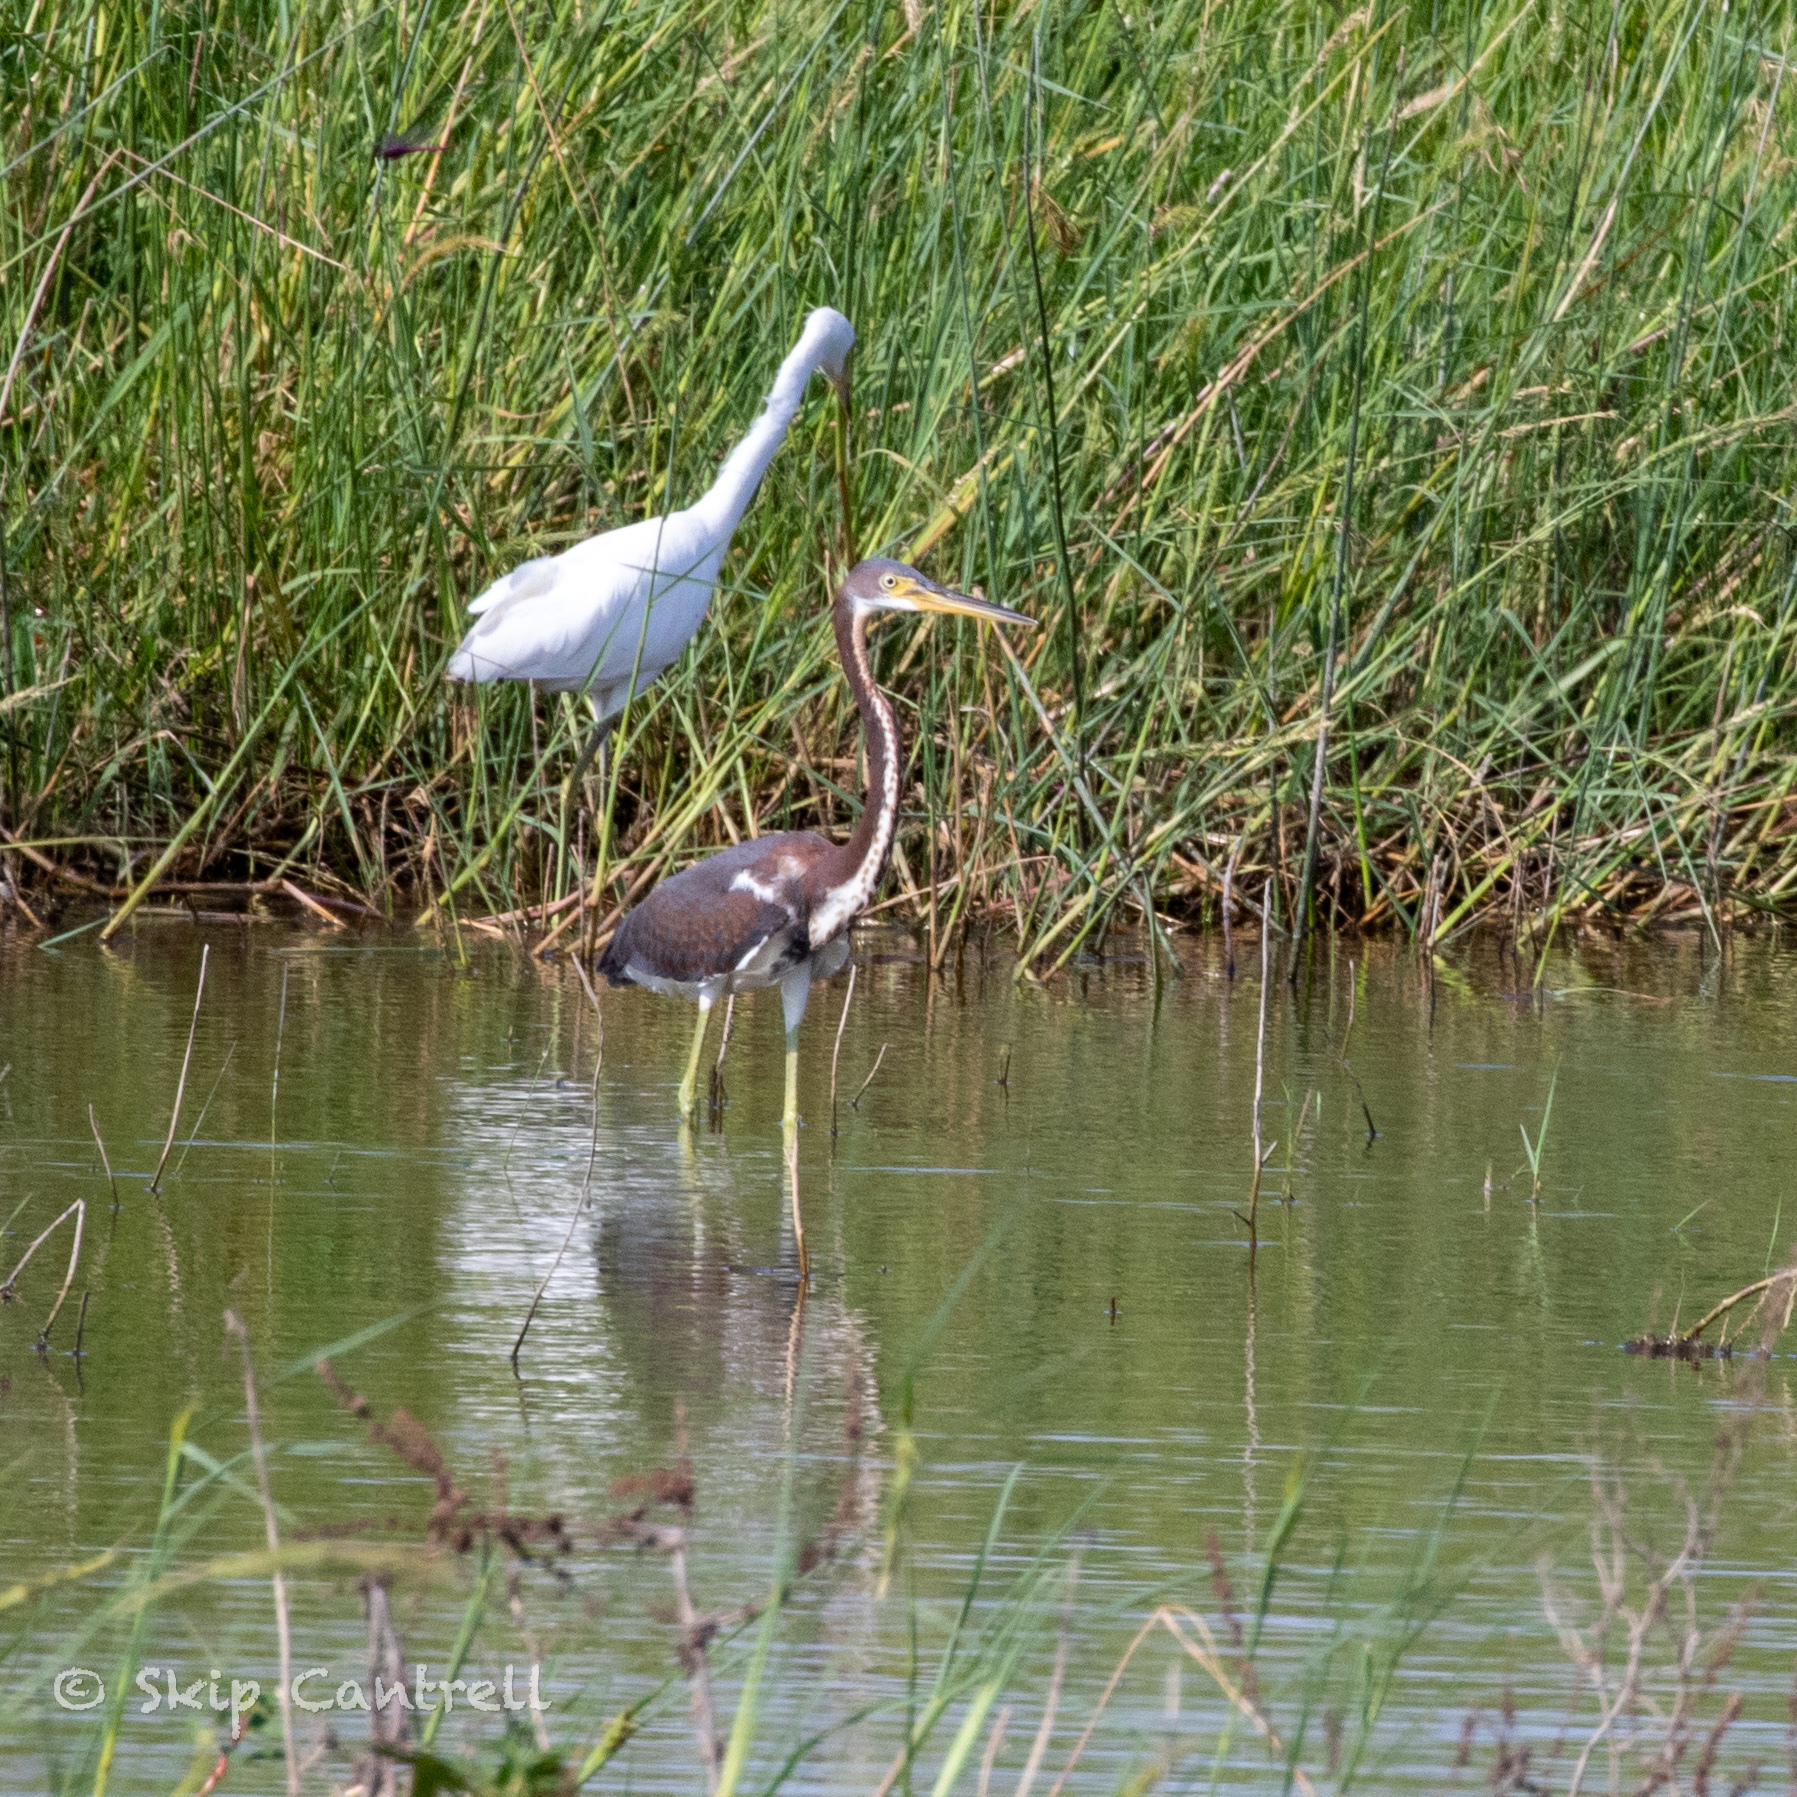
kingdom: Animalia
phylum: Chordata
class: Aves
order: Pelecaniformes
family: Ardeidae
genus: Egretta
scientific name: Egretta tricolor
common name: Tricolored heron
